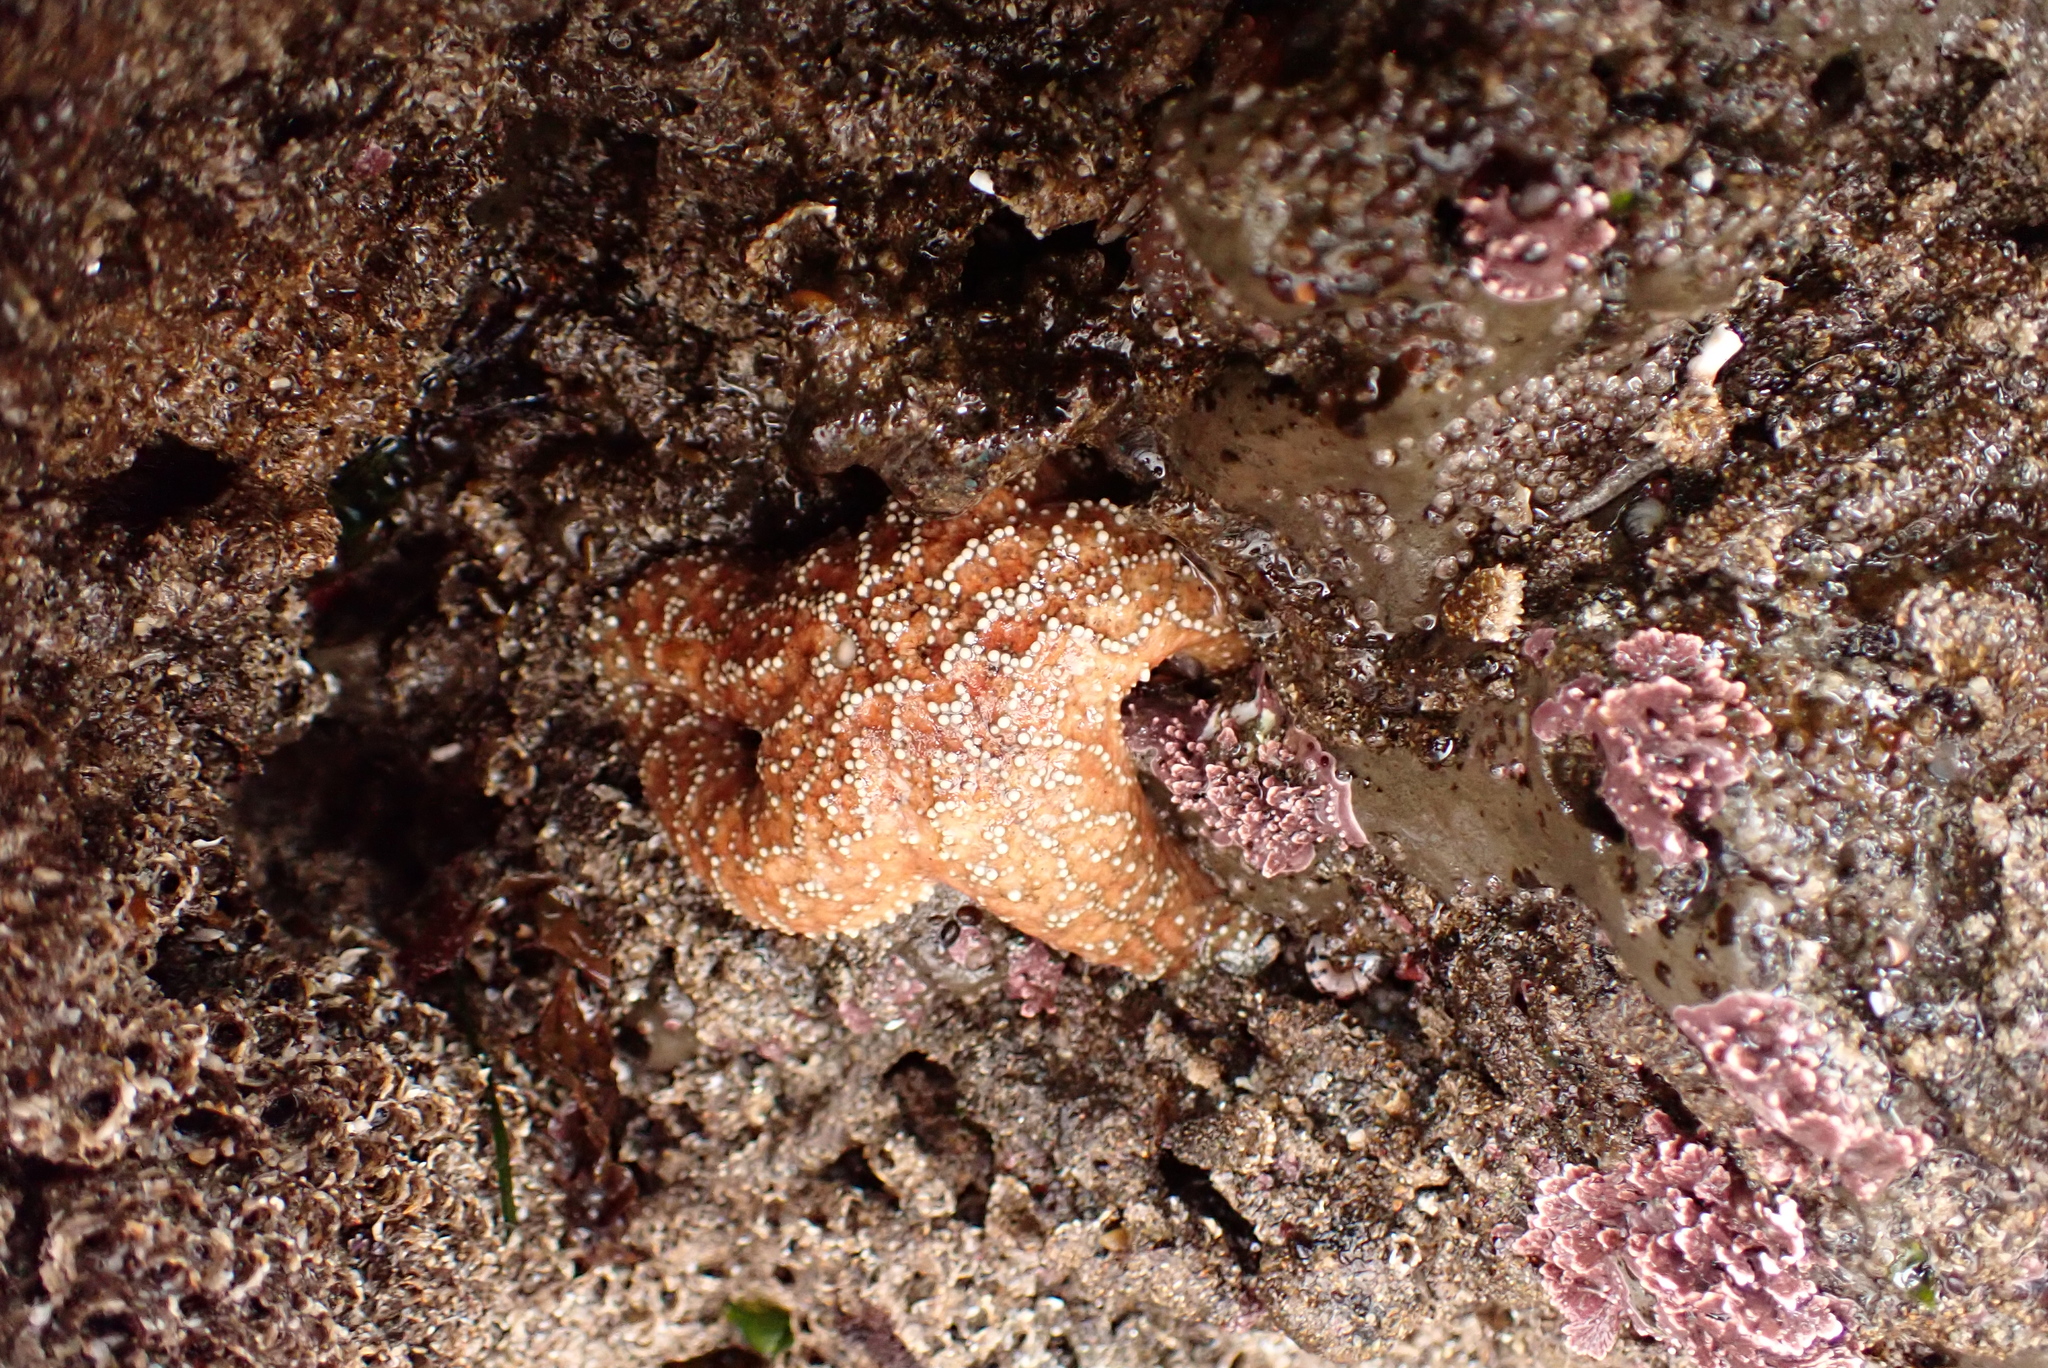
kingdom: Animalia
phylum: Echinodermata
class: Asteroidea
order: Forcipulatida
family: Asteriidae
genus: Pisaster
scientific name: Pisaster ochraceus
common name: Ochre stars
